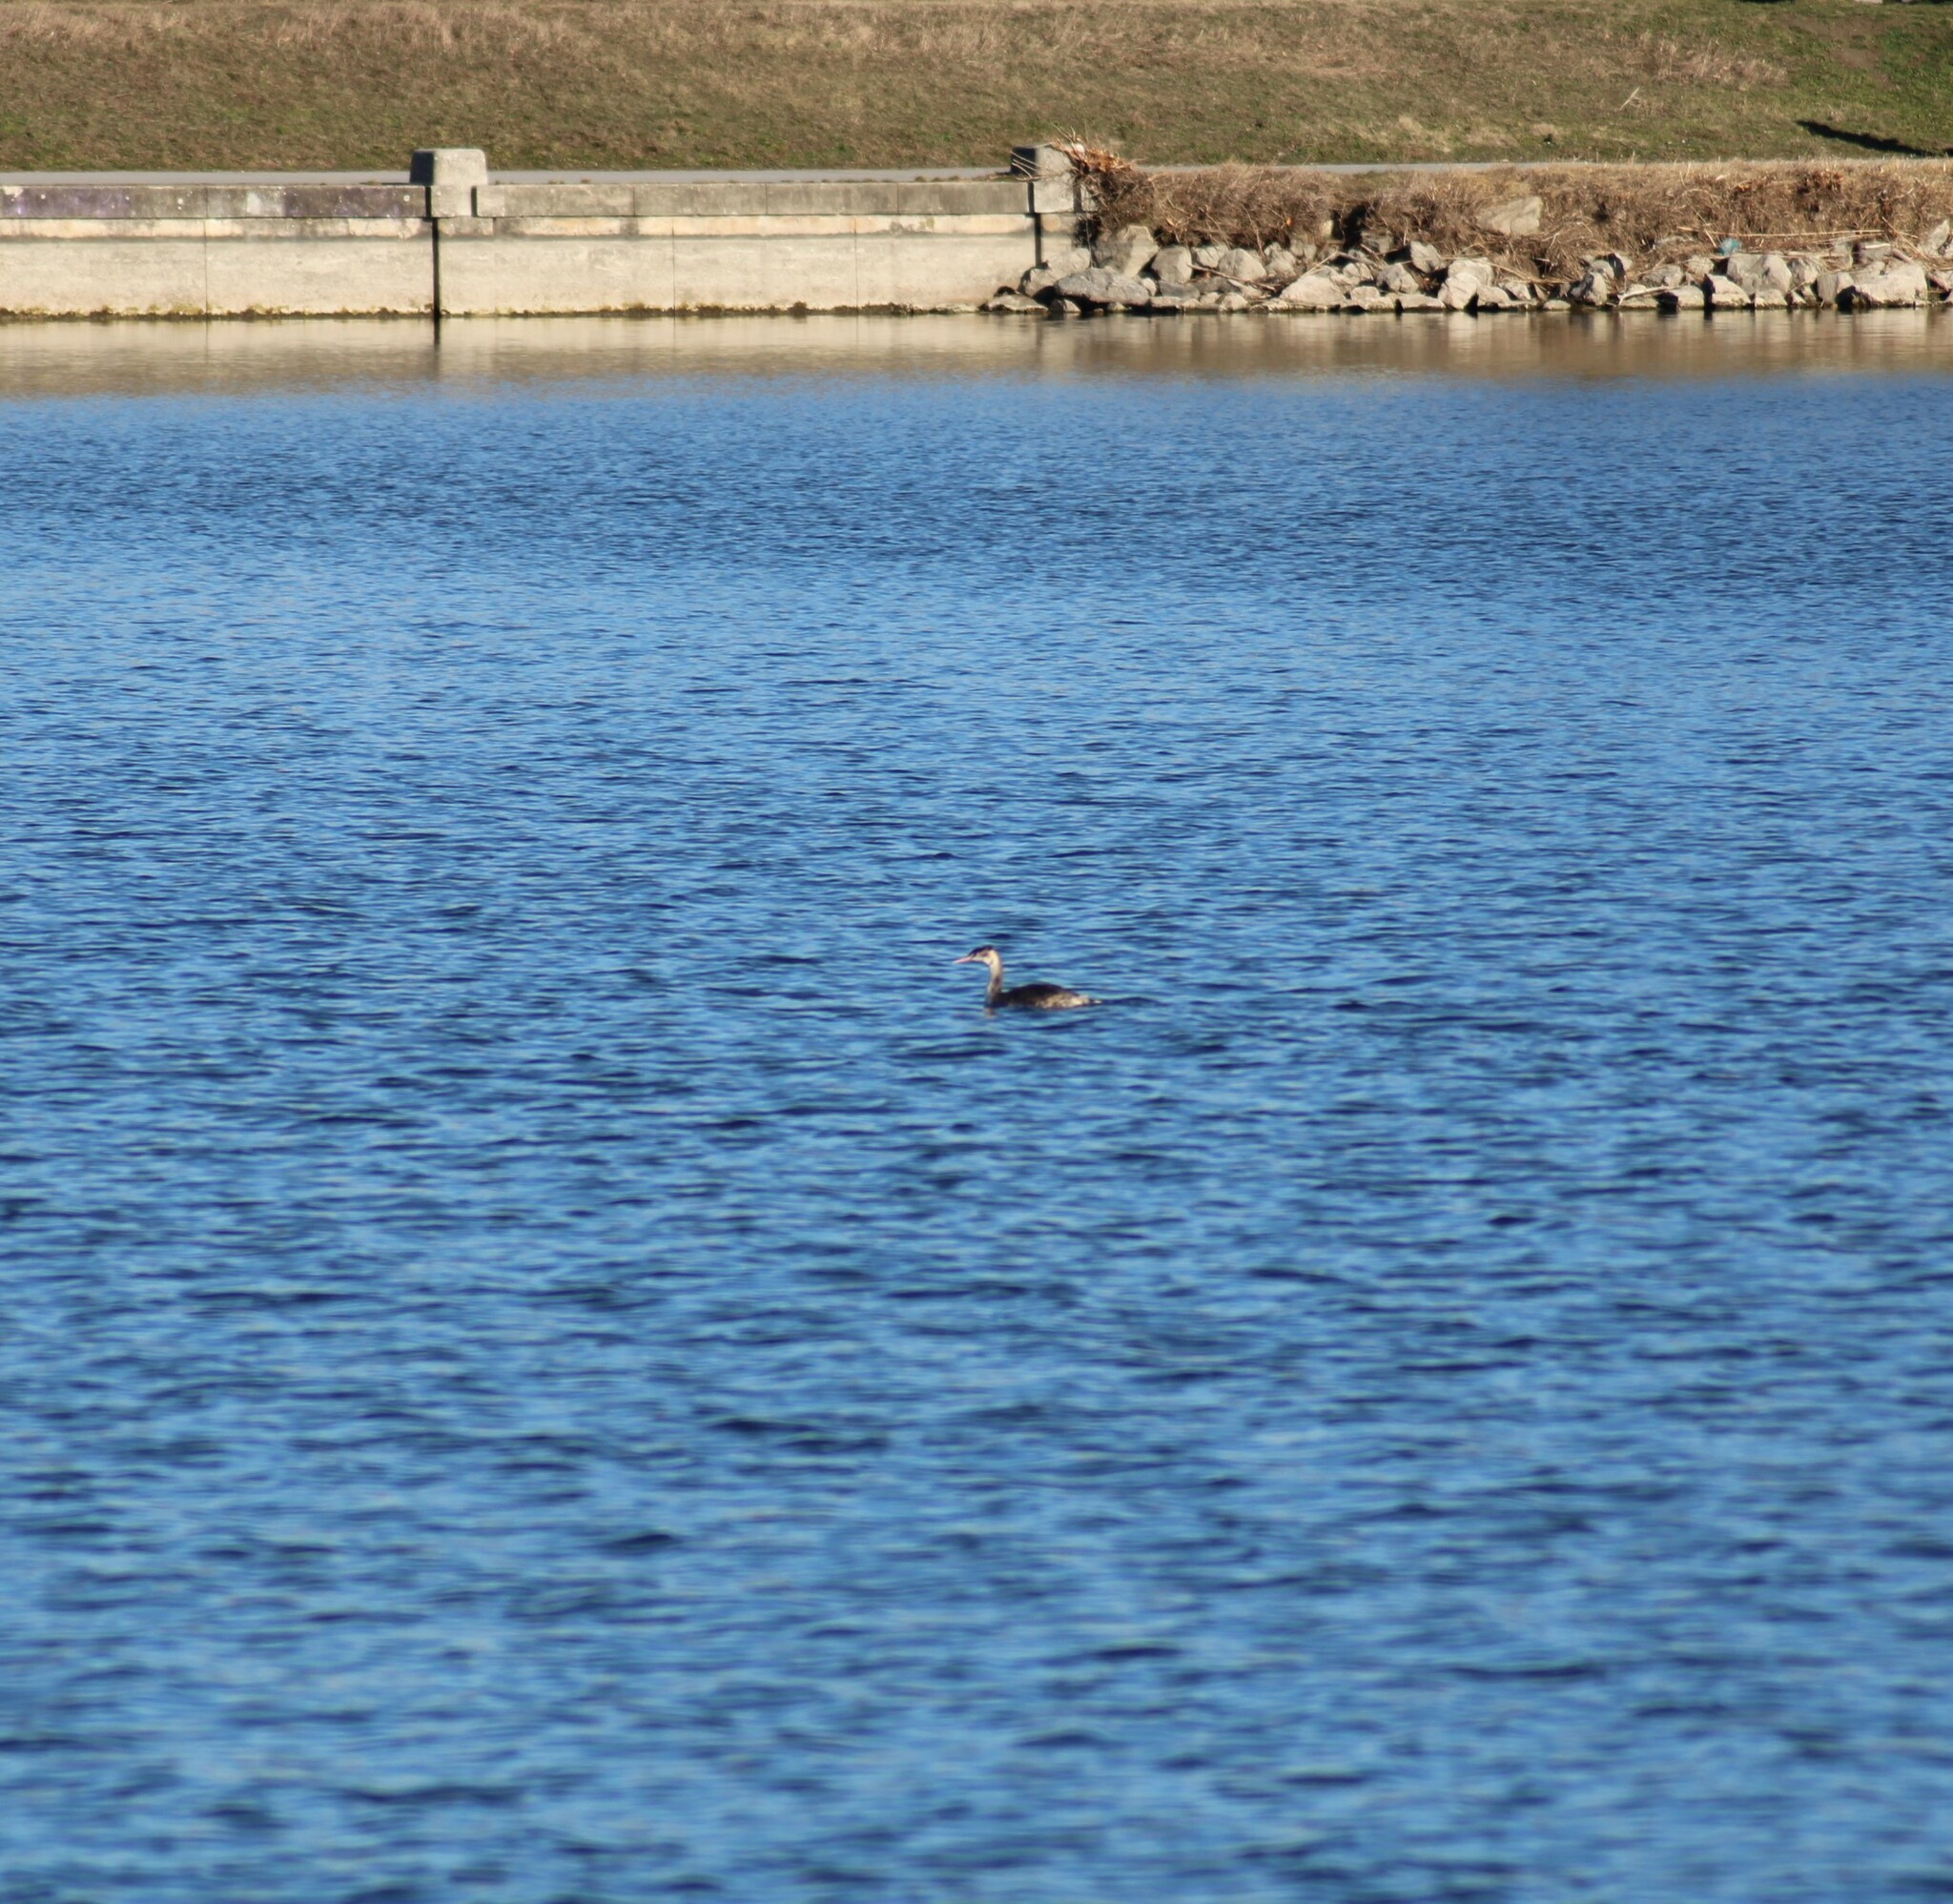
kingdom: Animalia
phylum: Chordata
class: Aves
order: Podicipediformes
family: Podicipedidae
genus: Podiceps
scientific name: Podiceps cristatus
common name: Great crested grebe
